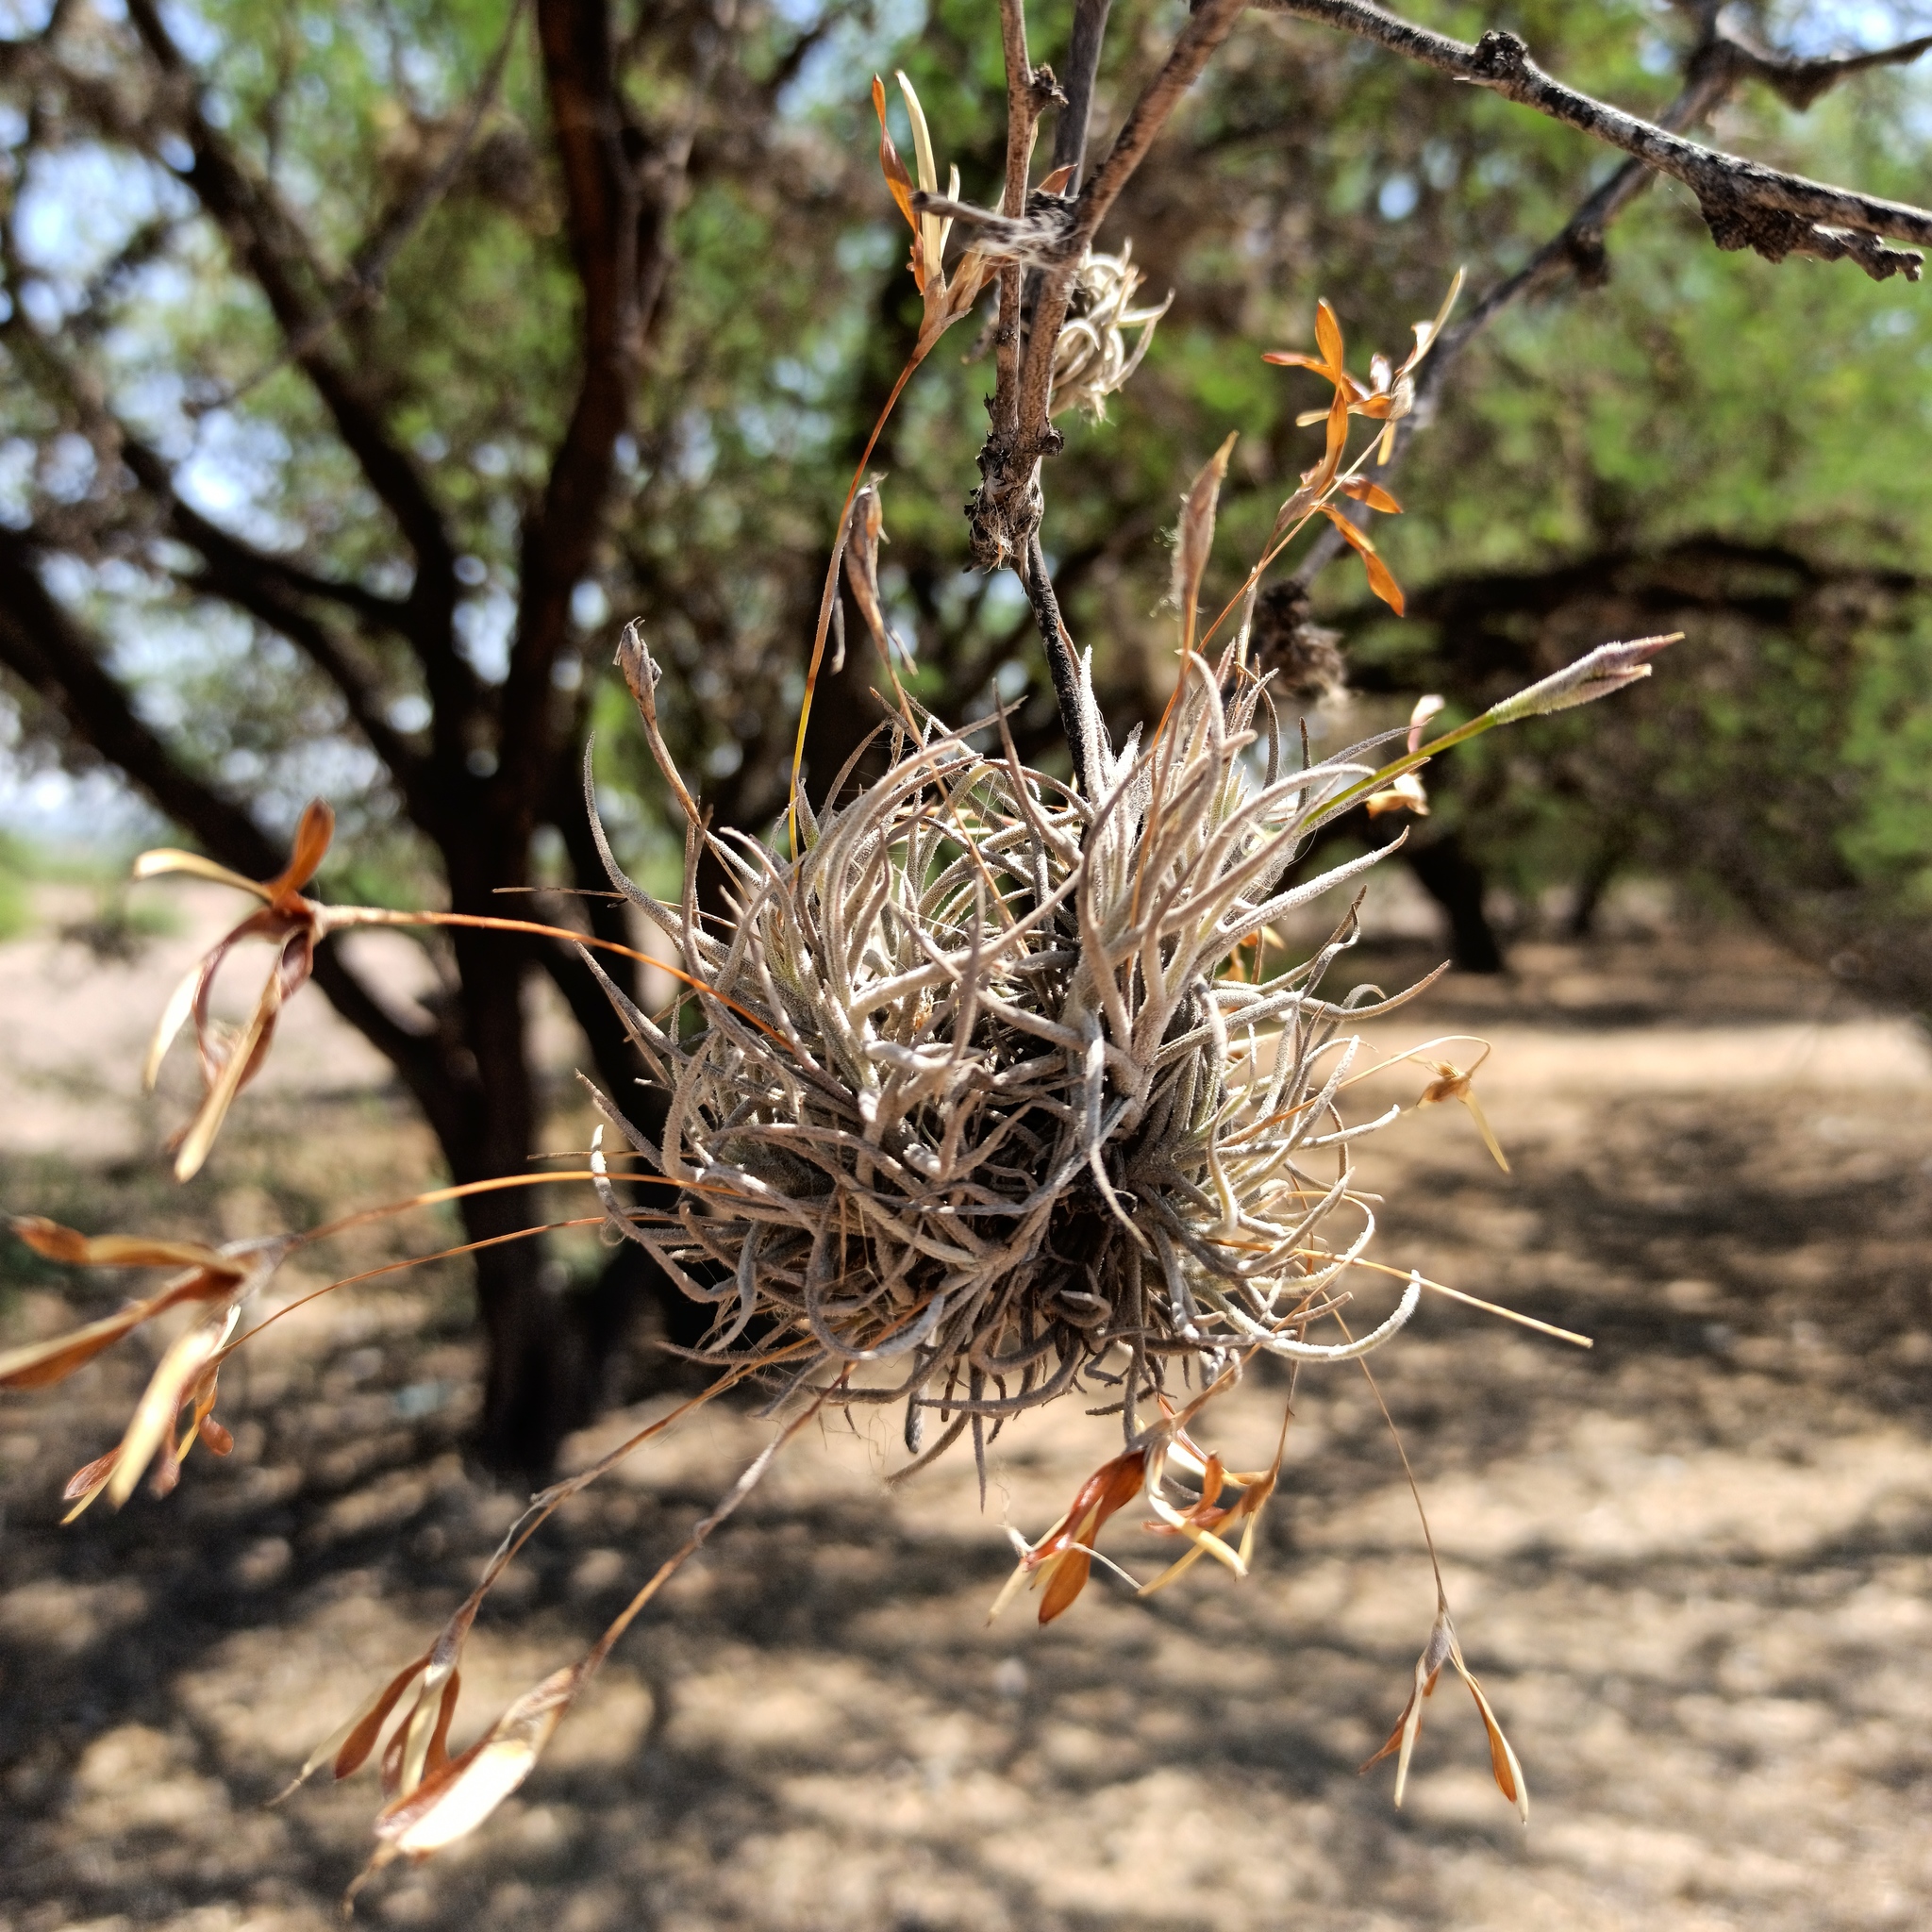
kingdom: Plantae
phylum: Tracheophyta
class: Liliopsida
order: Poales
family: Bromeliaceae
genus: Tillandsia
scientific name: Tillandsia recurvata
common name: Small ballmoss
